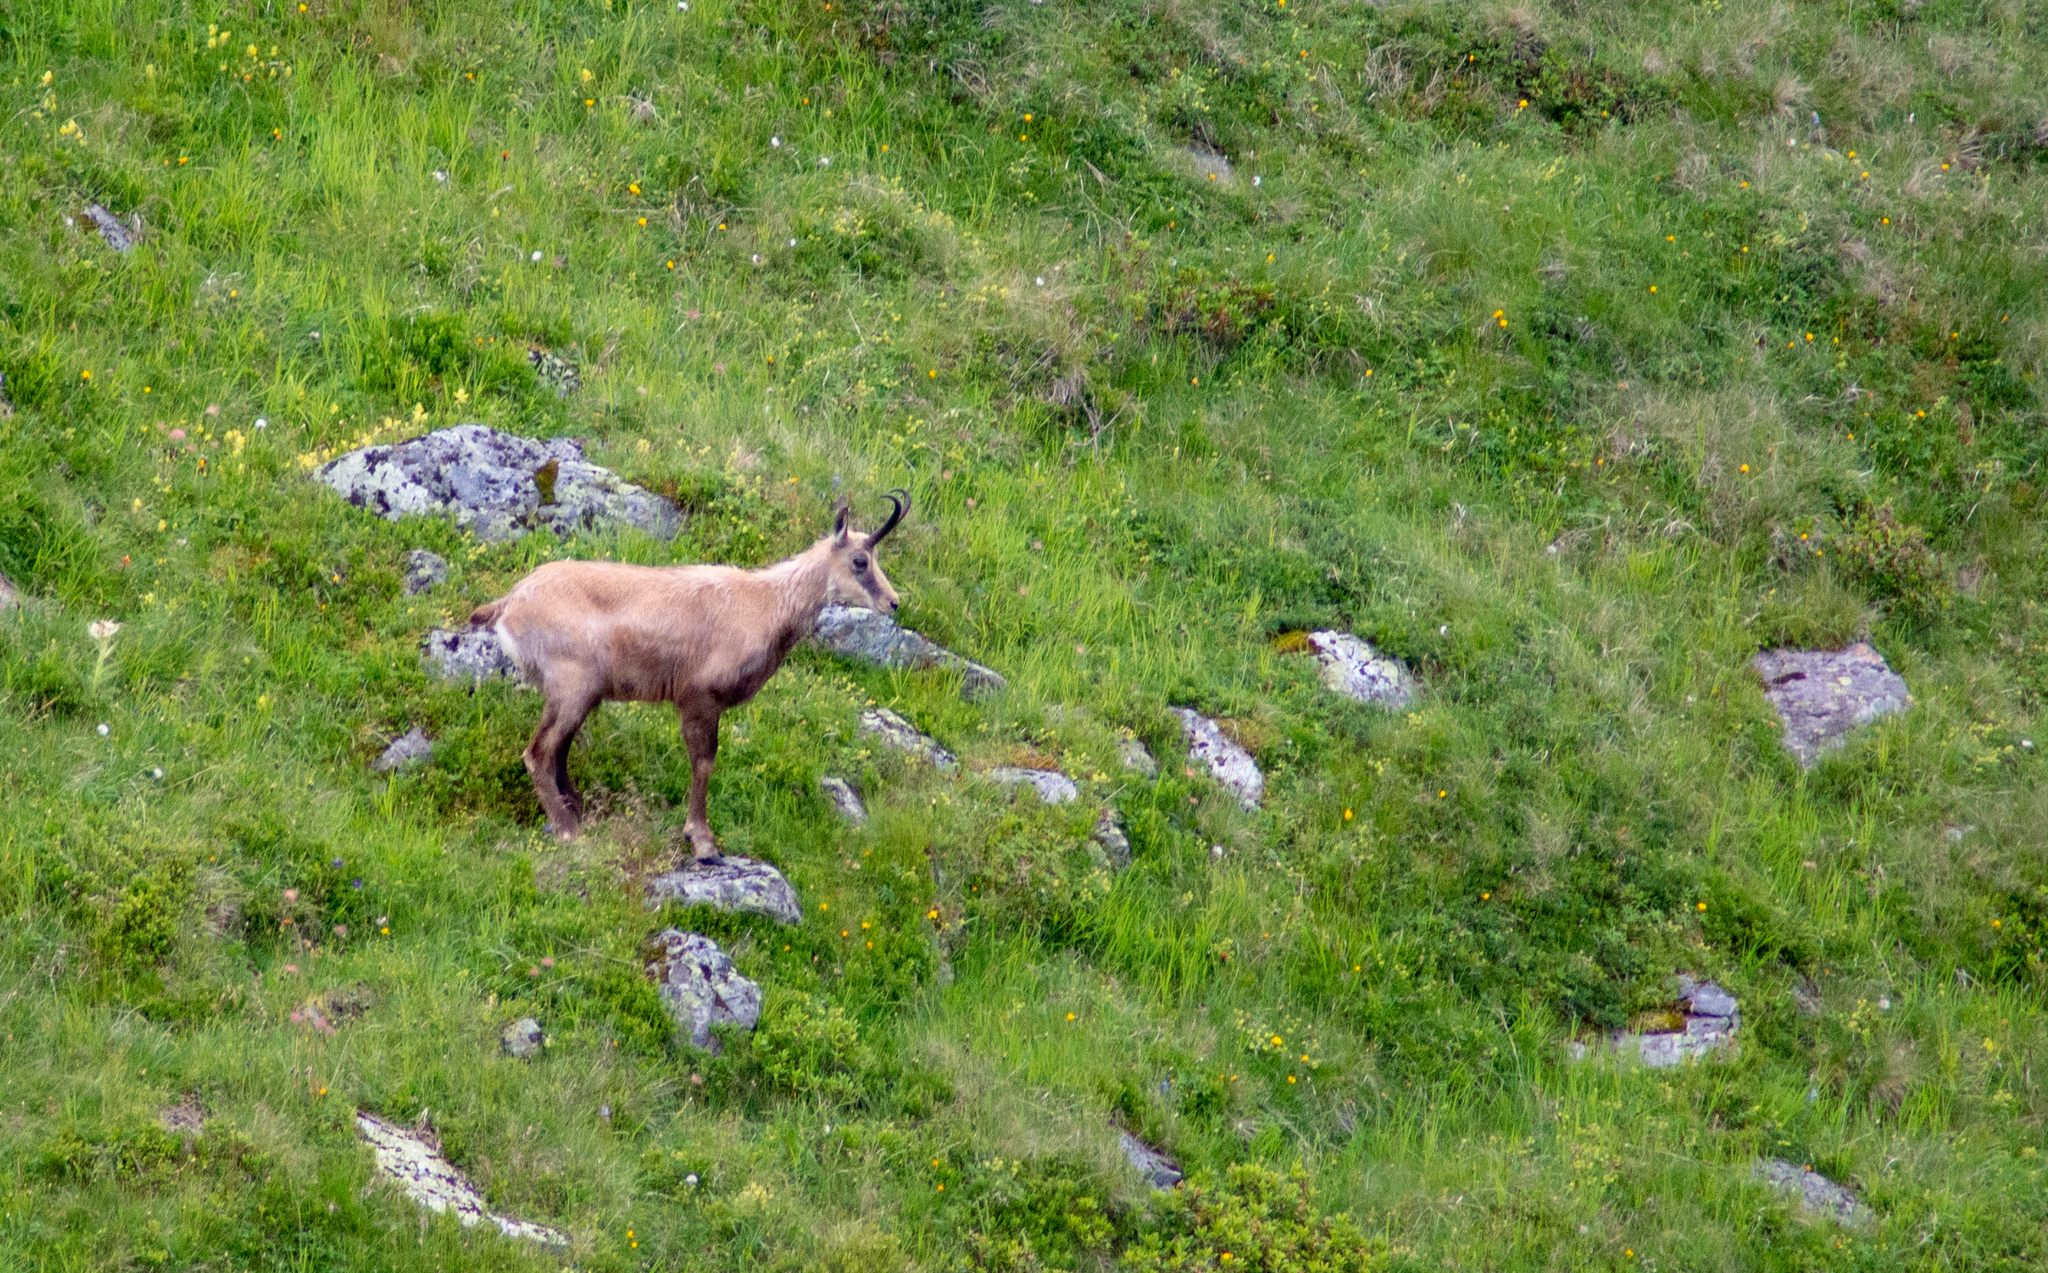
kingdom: Animalia
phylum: Chordata
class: Mammalia
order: Artiodactyla
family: Bovidae
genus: Rupicapra
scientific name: Rupicapra rupicapra
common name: Chamois
